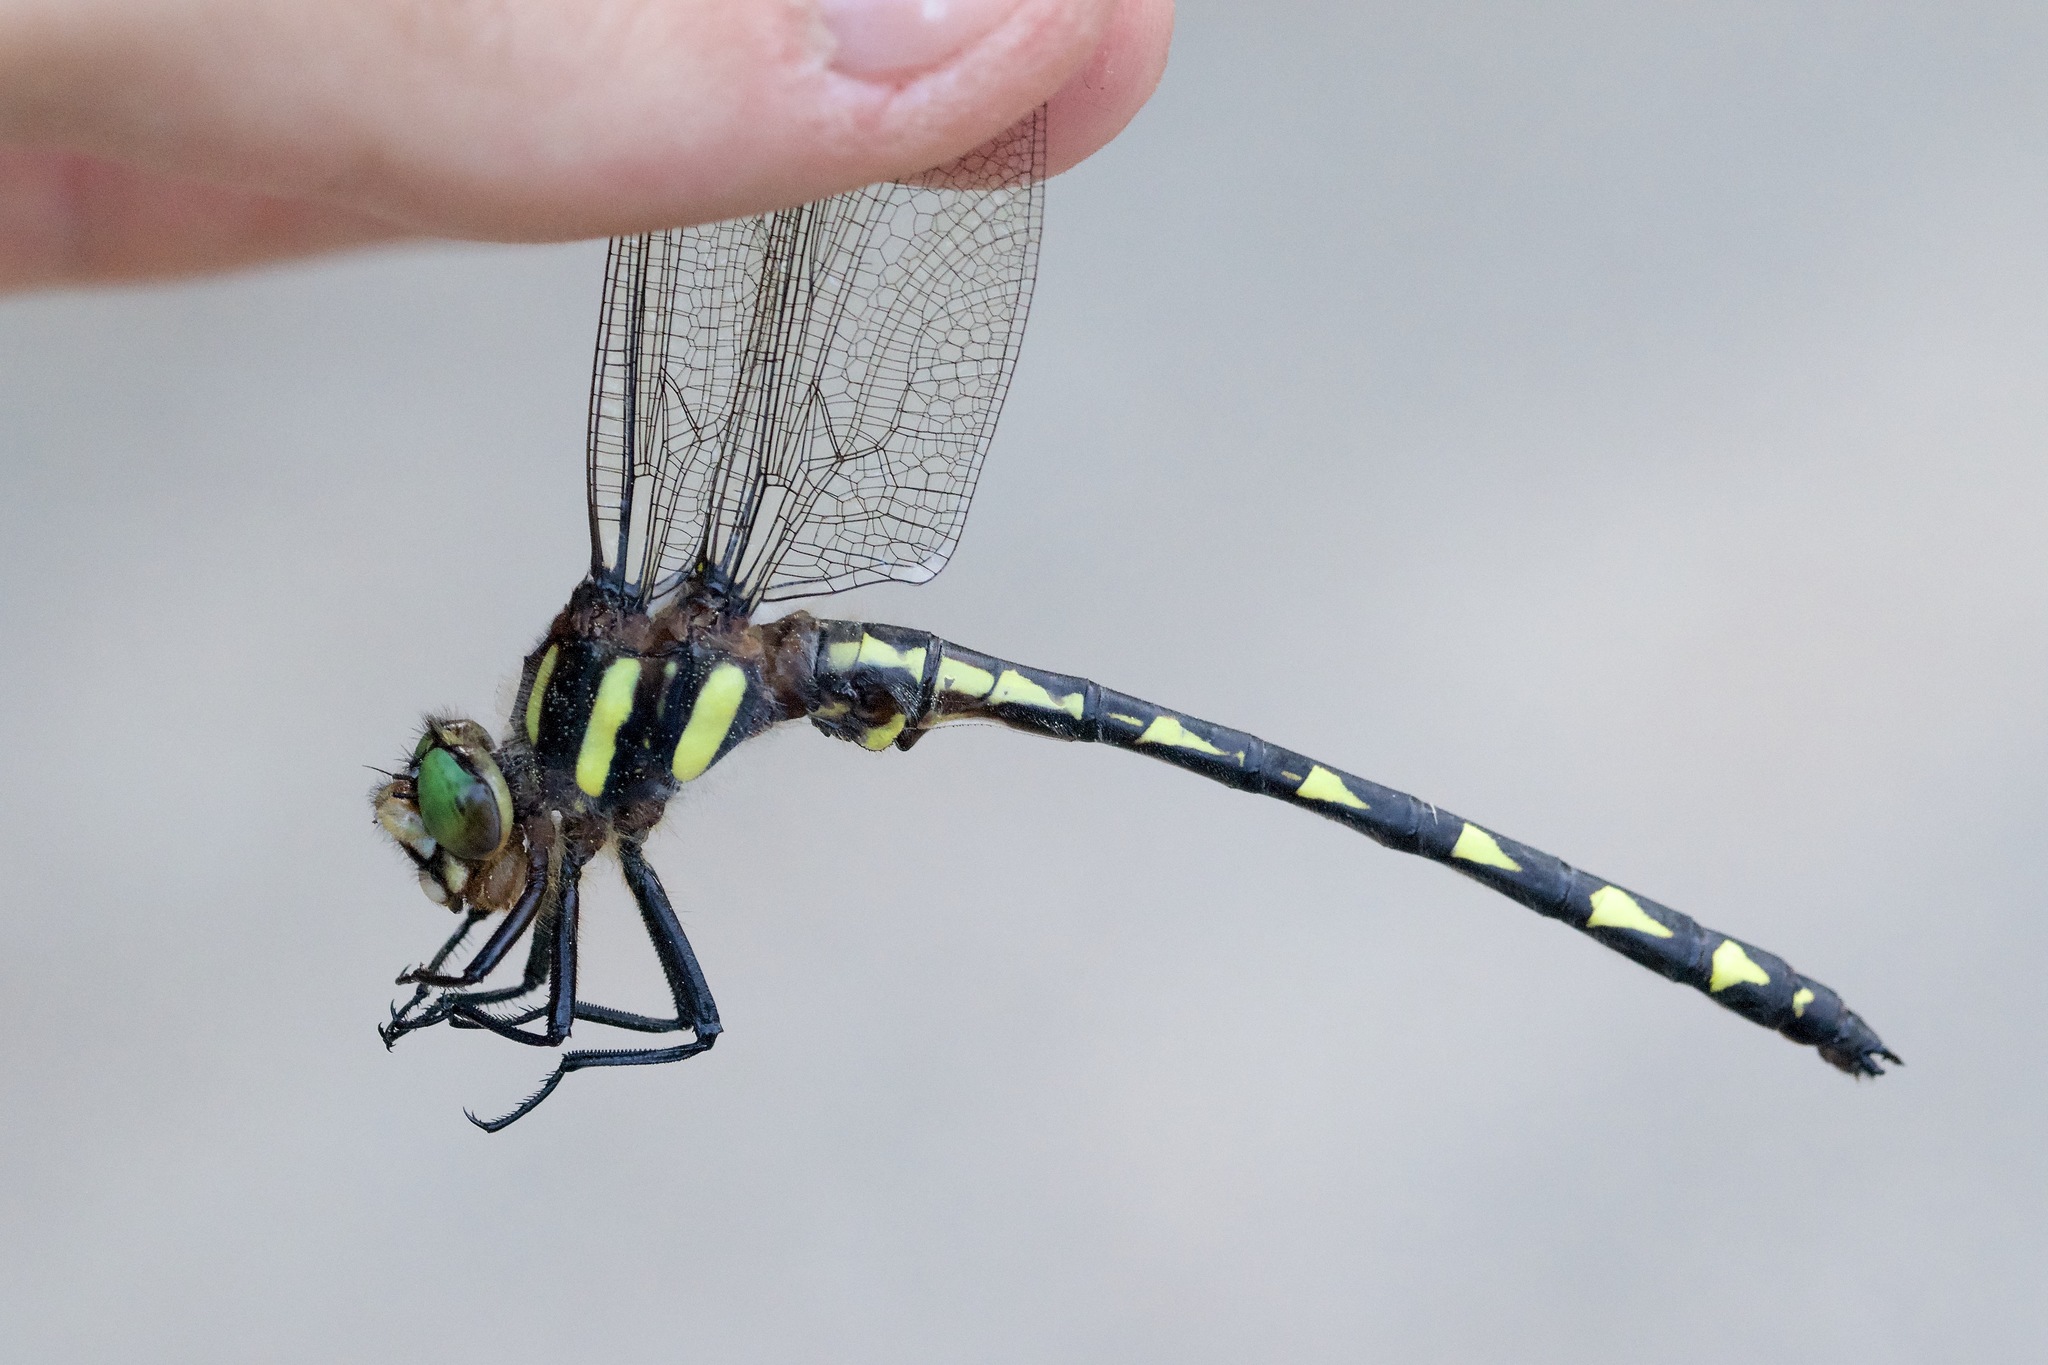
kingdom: Animalia
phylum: Arthropoda
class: Insecta
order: Odonata
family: Cordulegastridae
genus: Cordulegaster
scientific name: Cordulegaster diastatops
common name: Delta-spotted spiketail
